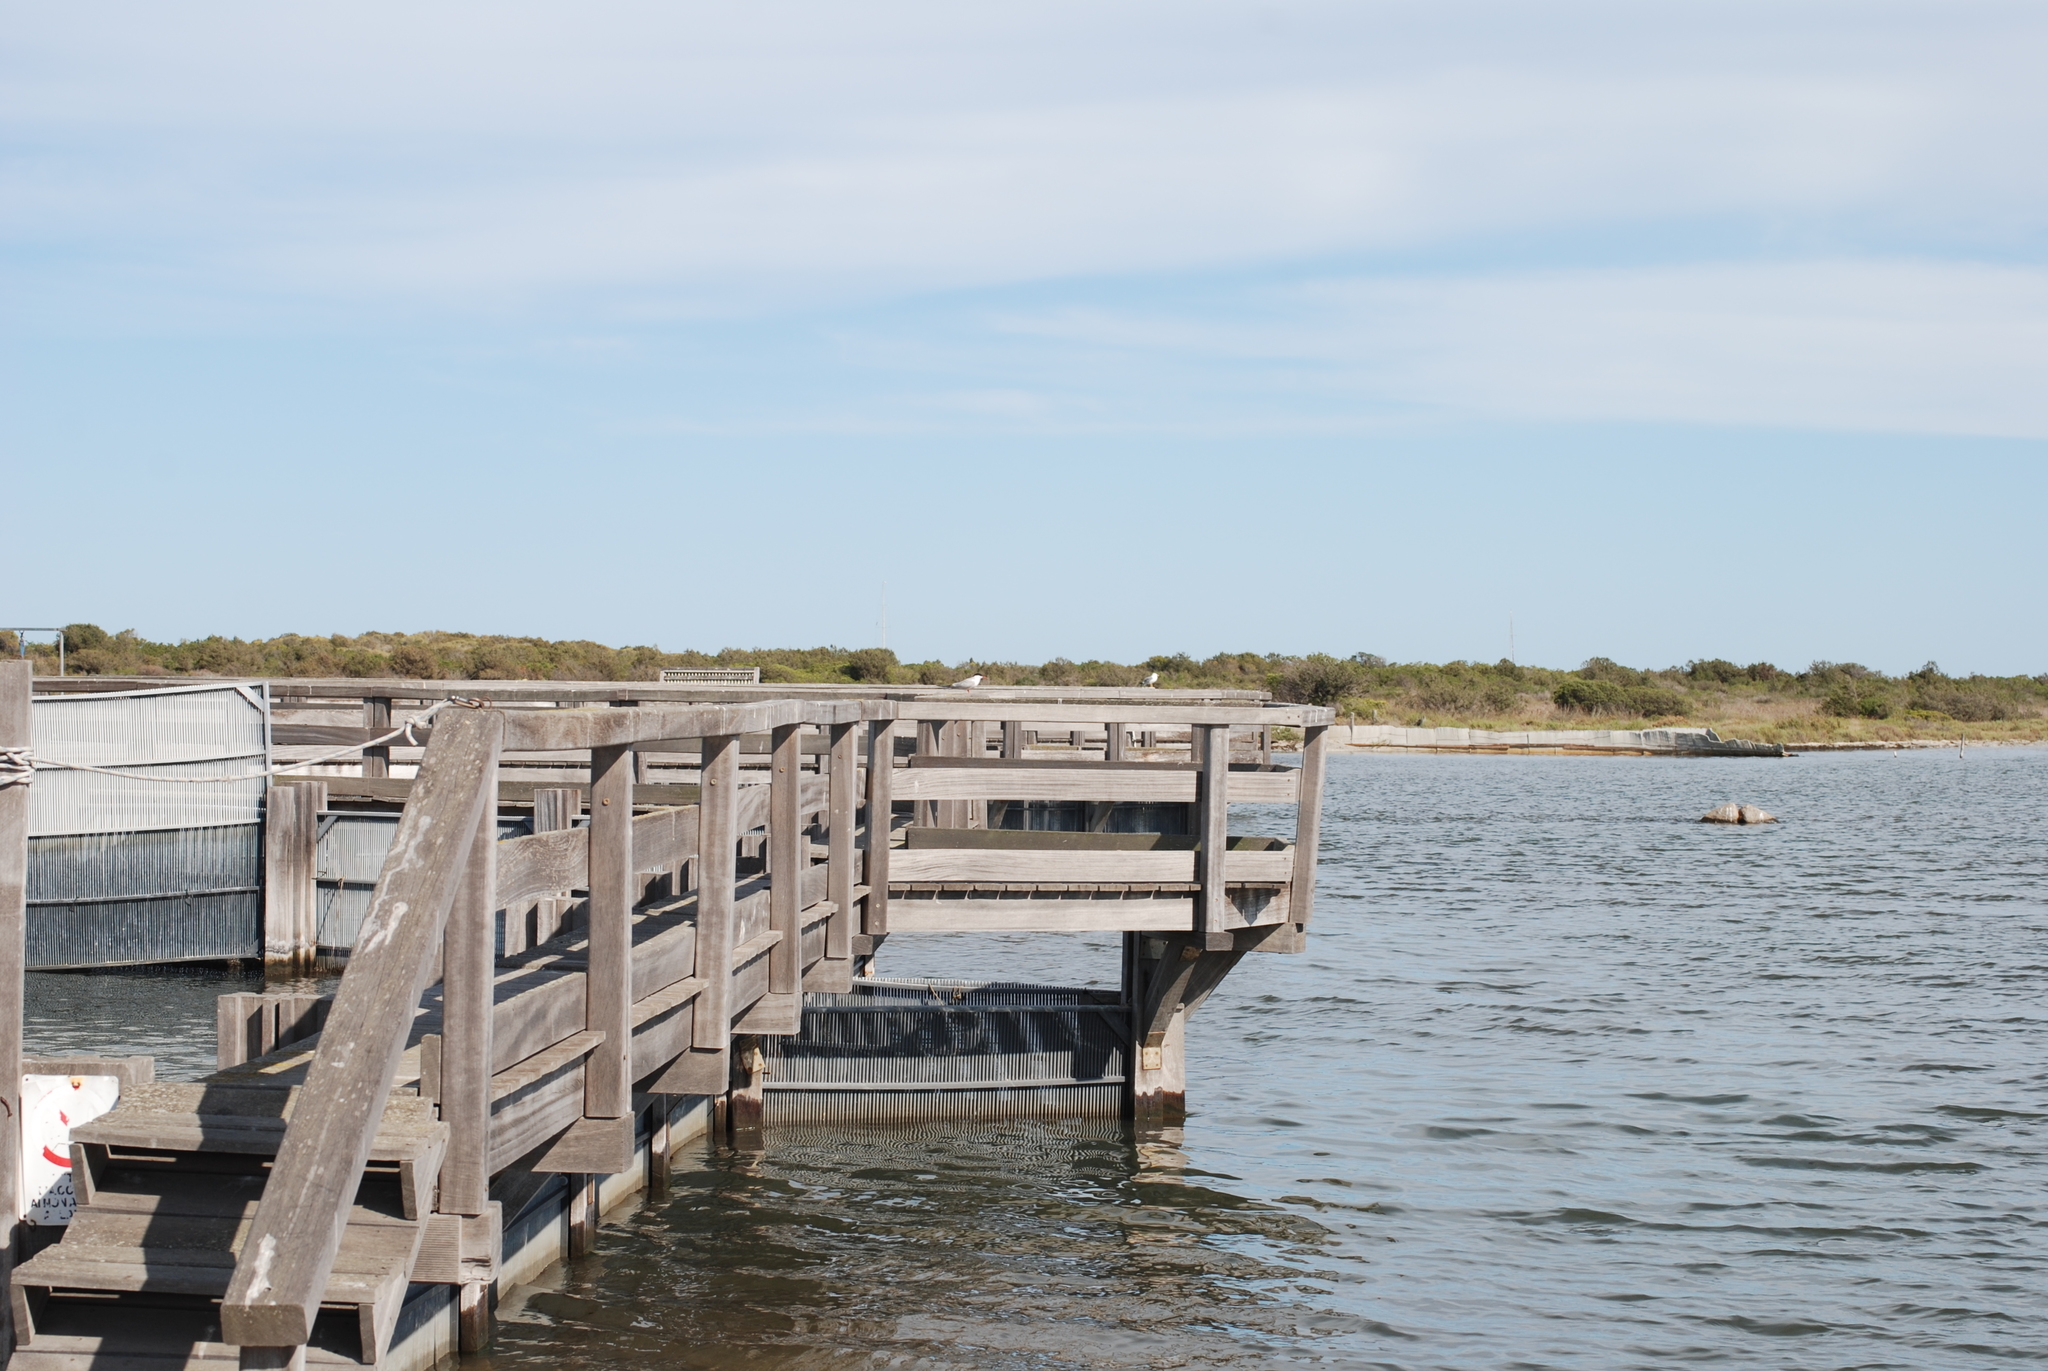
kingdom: Animalia
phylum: Chordata
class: Aves
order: Charadriiformes
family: Laridae
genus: Sterna
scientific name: Sterna hirundo
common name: Common tern
